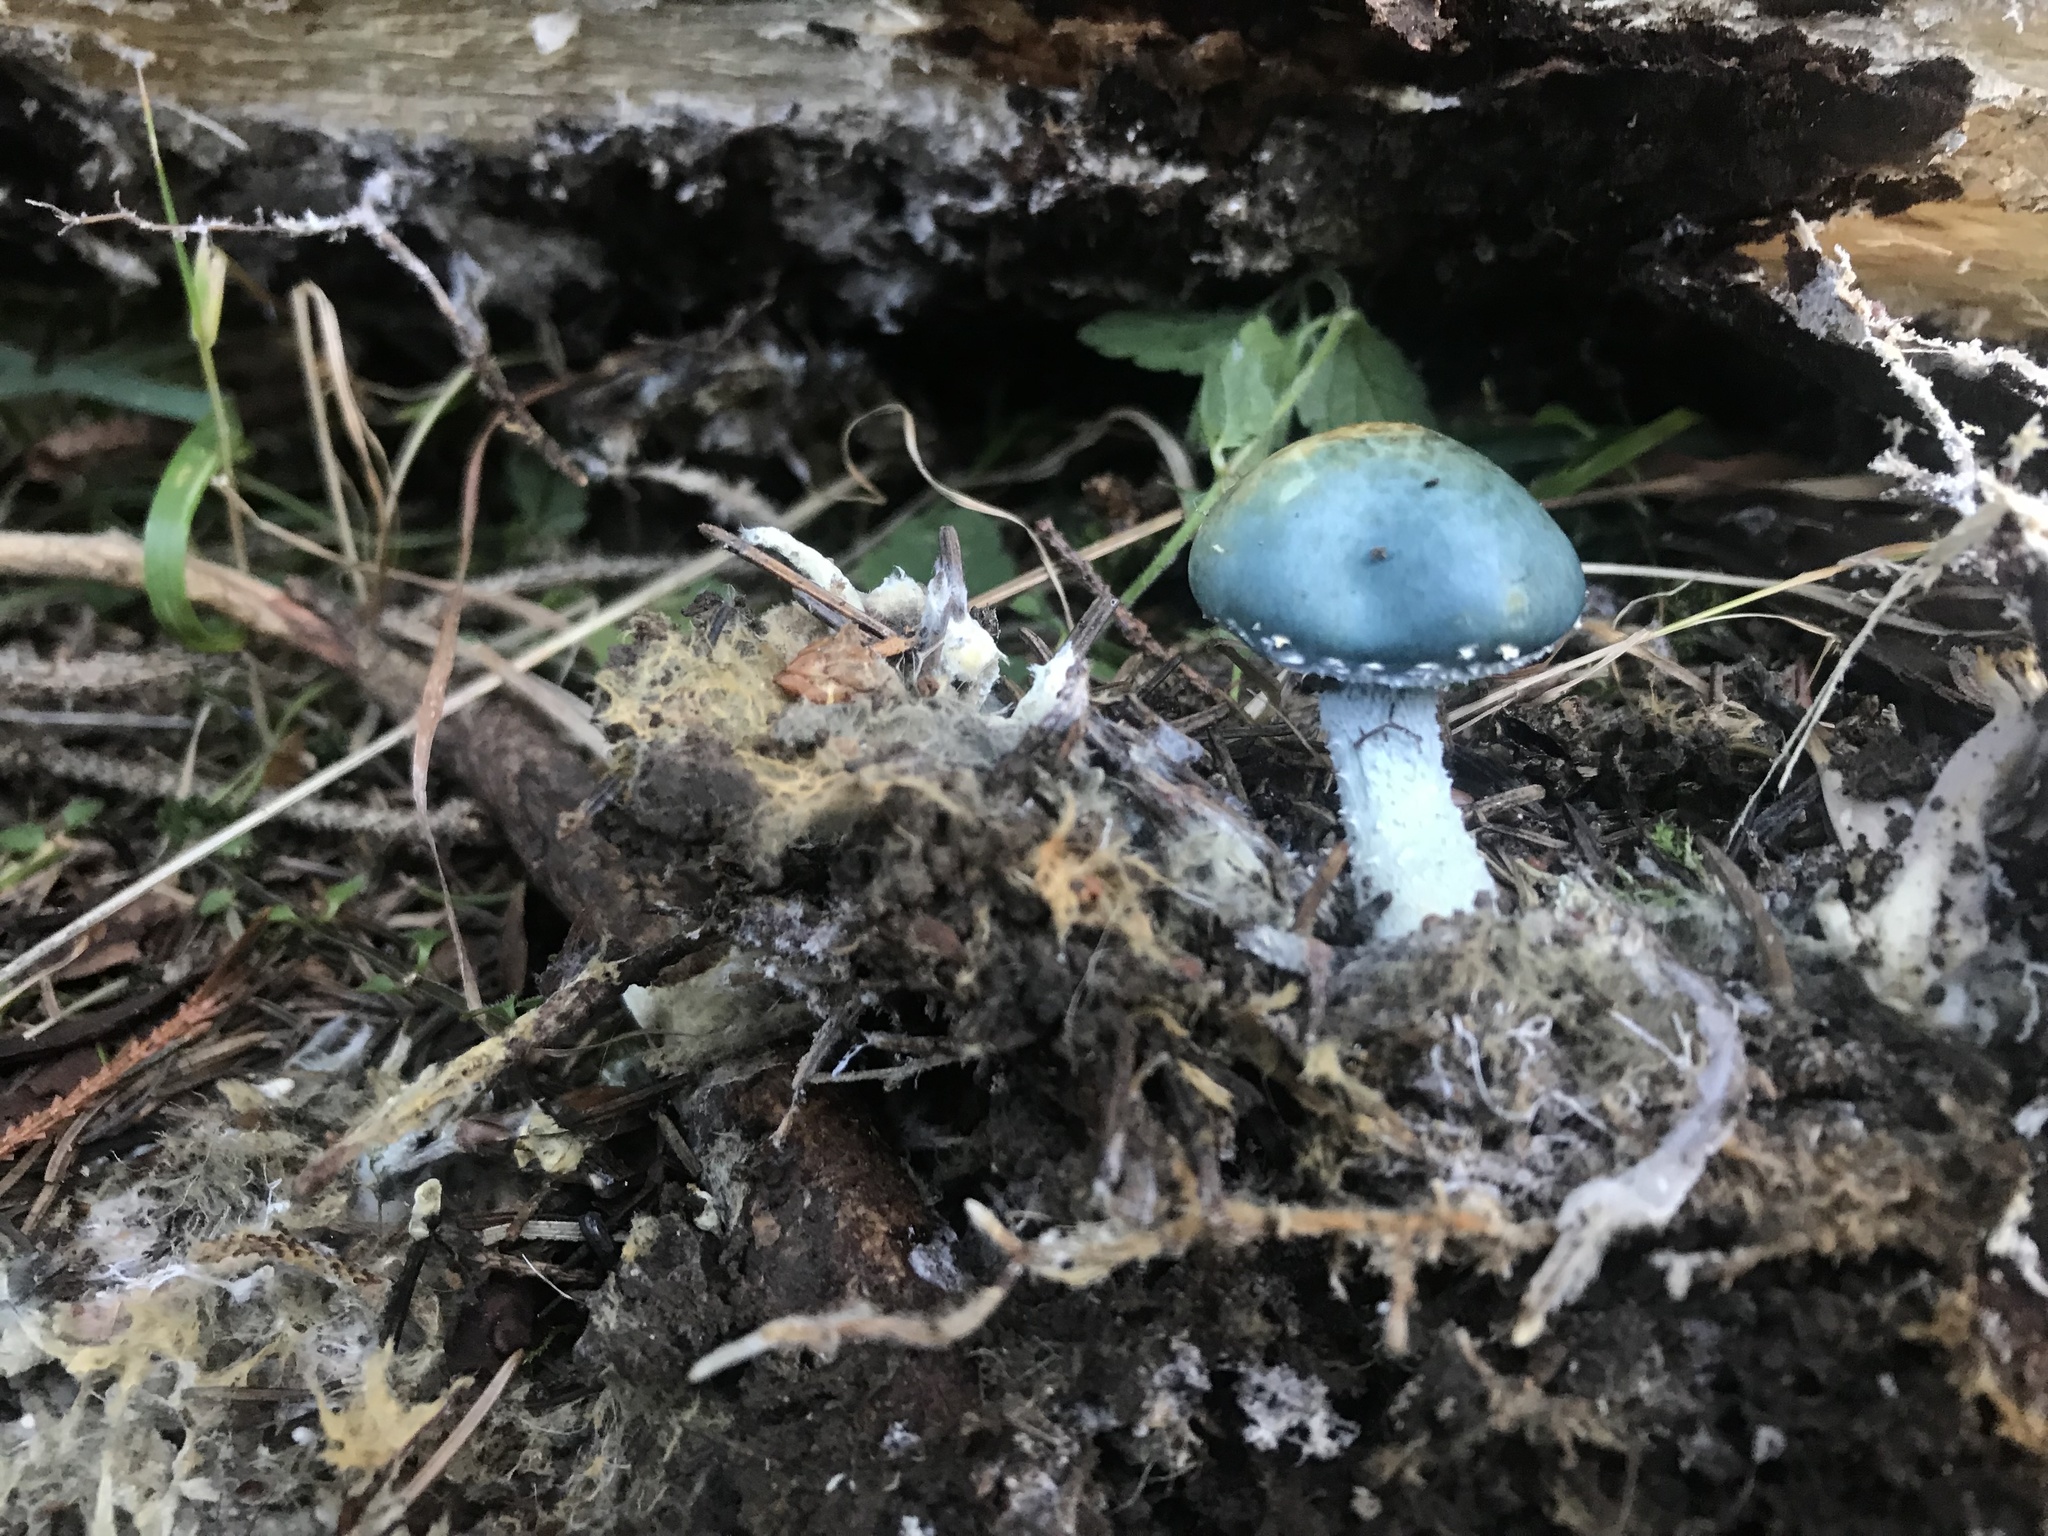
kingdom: Fungi
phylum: Basidiomycota
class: Agaricomycetes
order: Agaricales
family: Strophariaceae
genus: Stropharia
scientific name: Stropharia aeruginosa
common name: Verdigris roundhead
